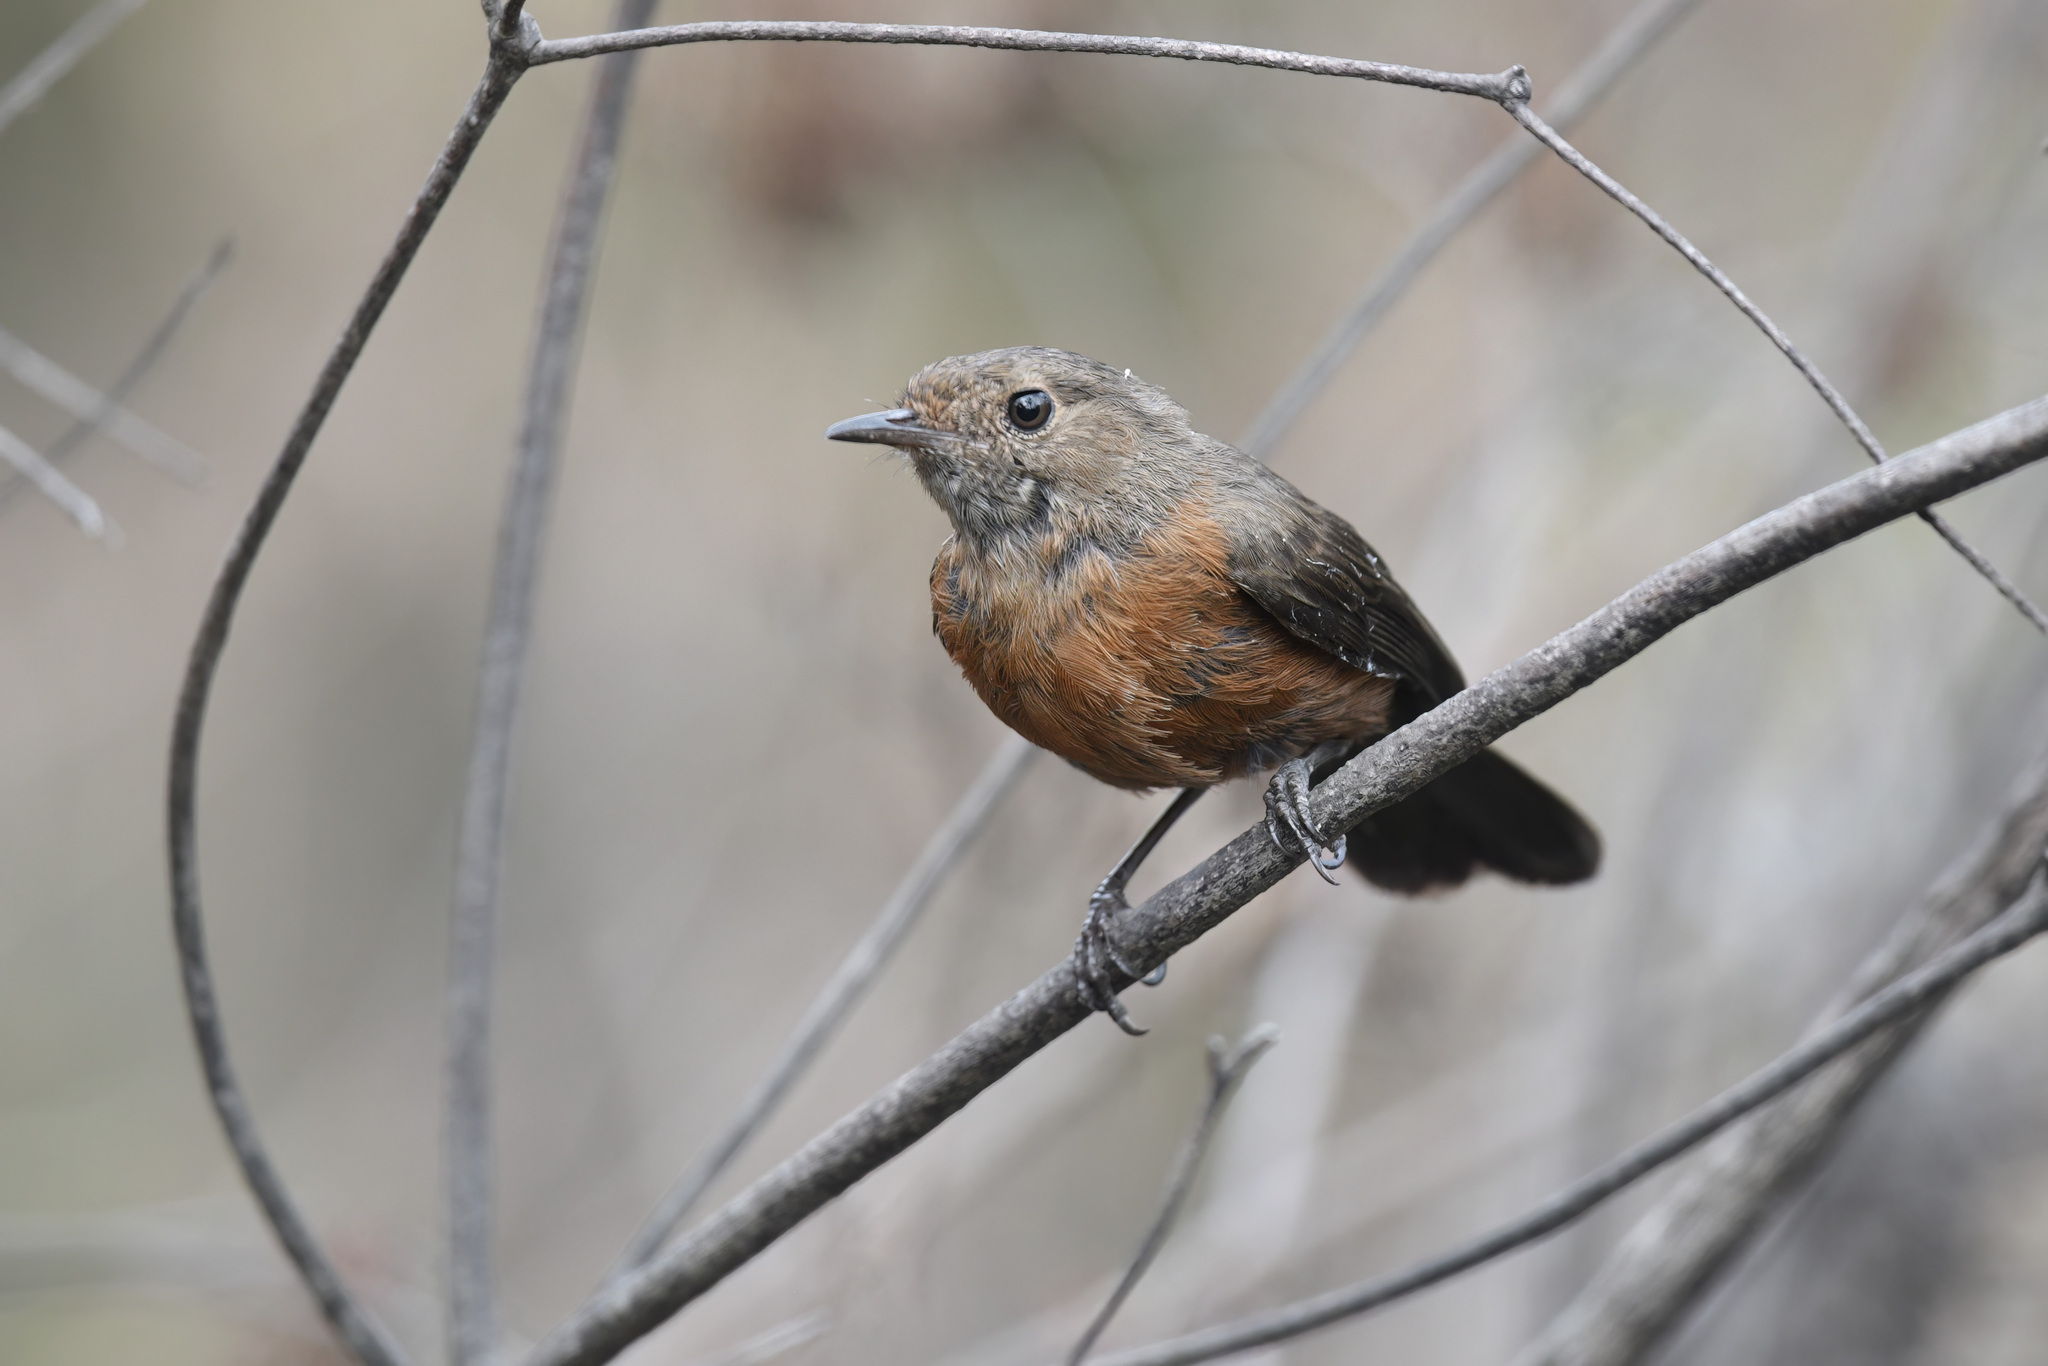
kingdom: Animalia
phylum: Chordata
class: Aves
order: Passeriformes
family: Acanthizidae
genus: Origma
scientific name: Origma solitaria
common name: Rockwarbler
